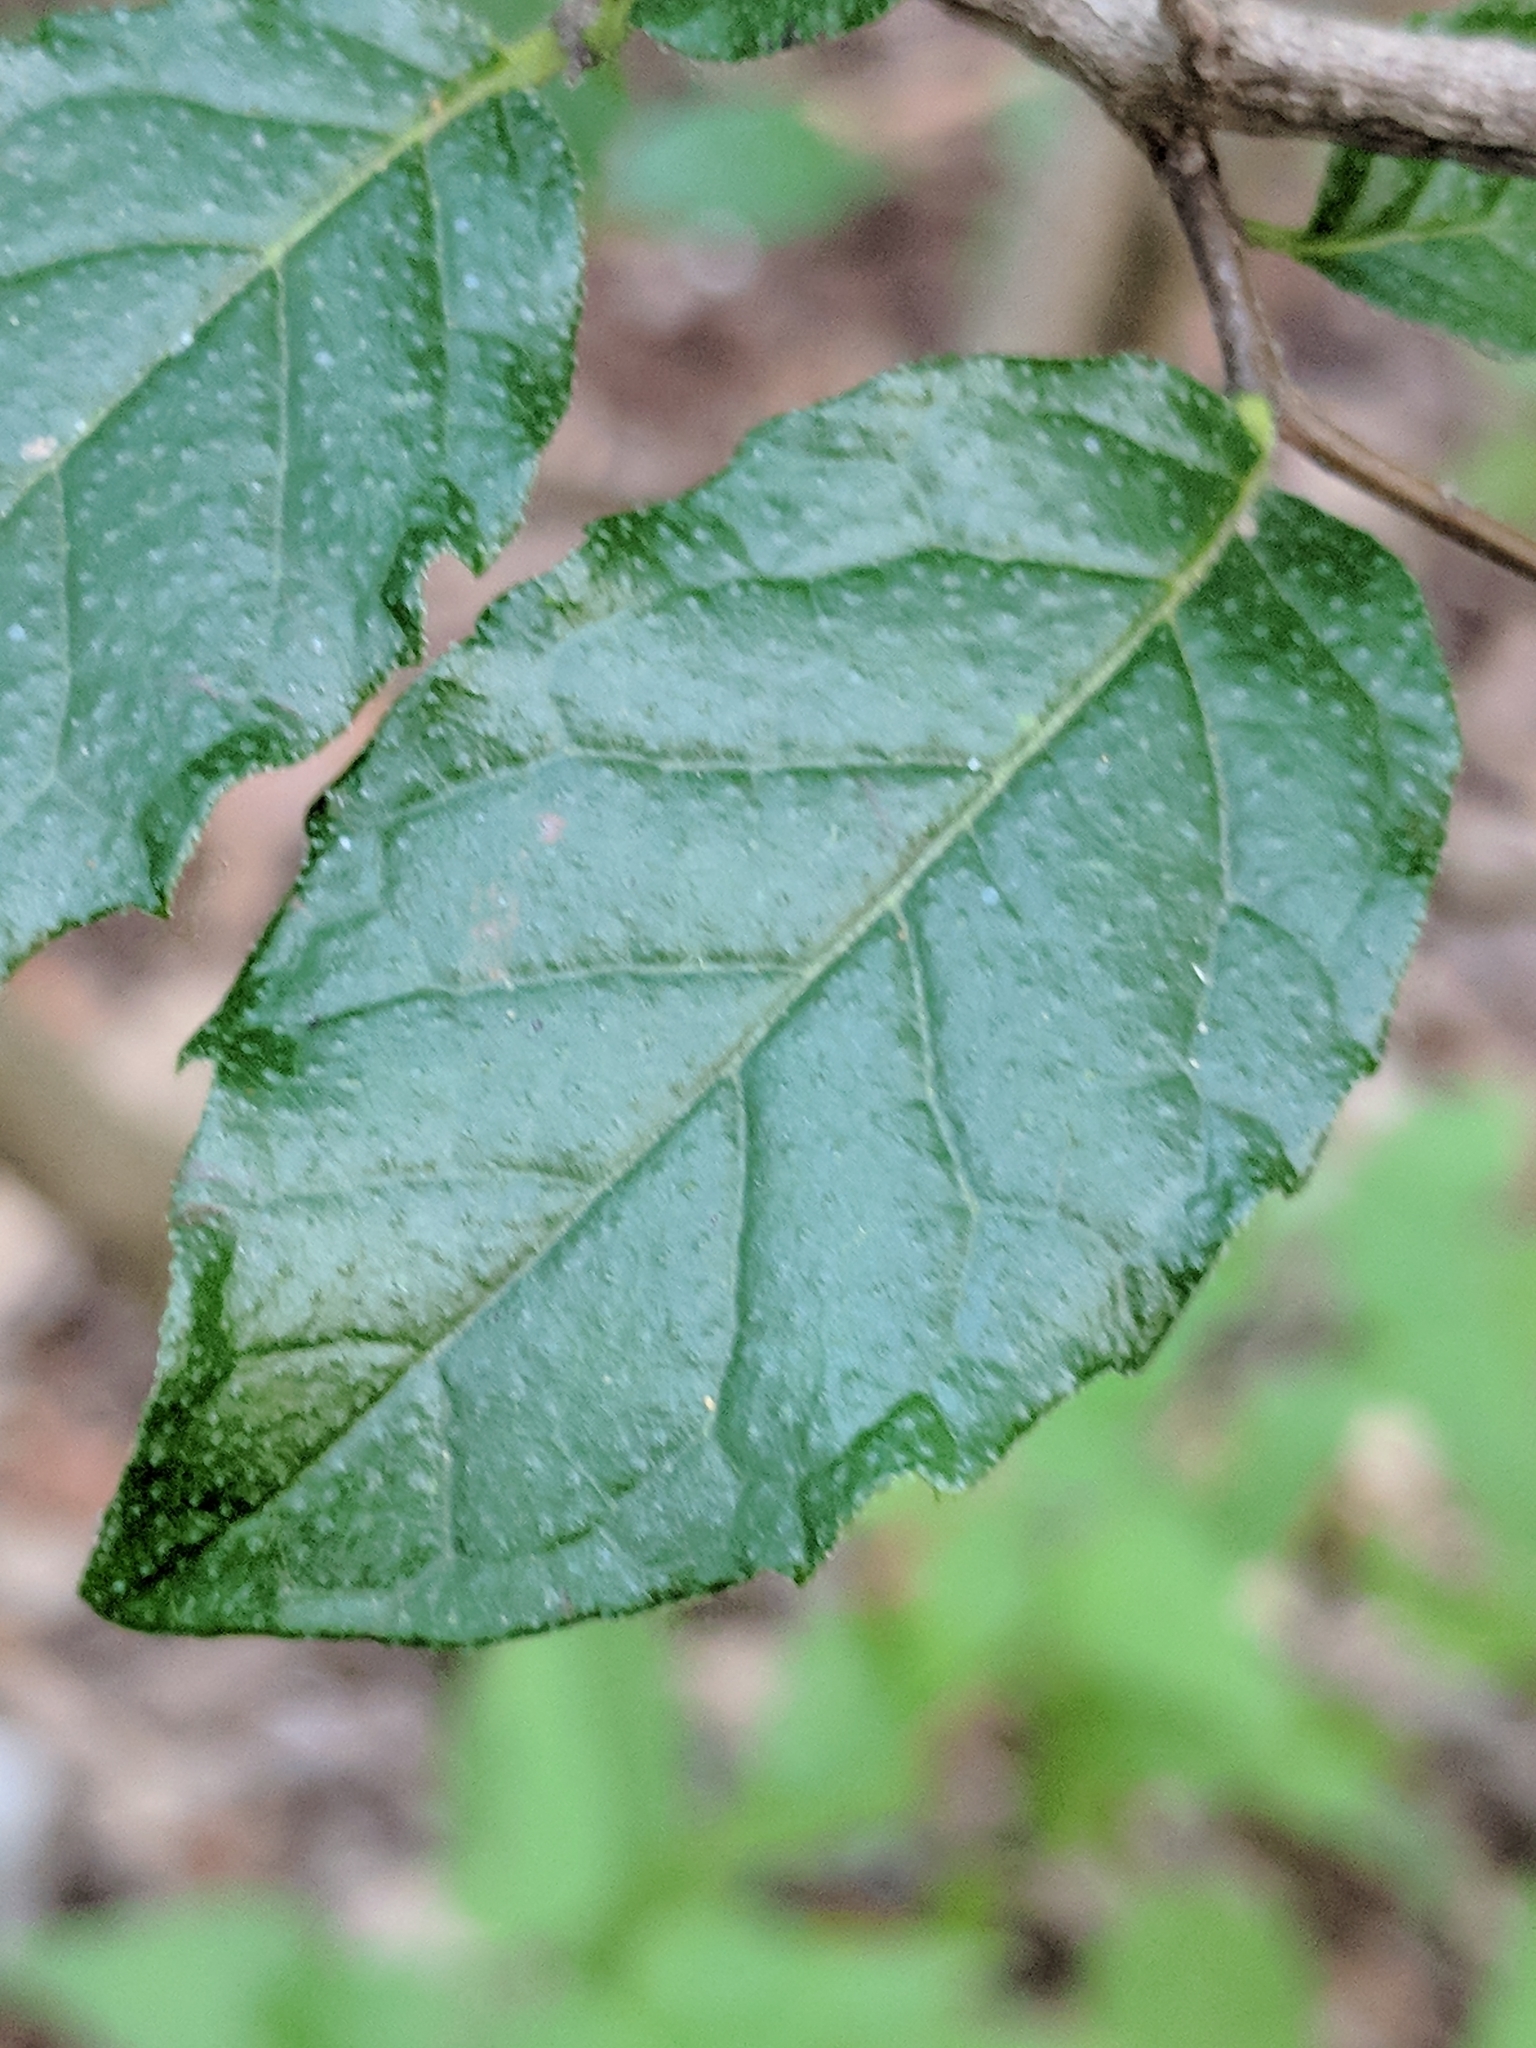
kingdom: Plantae
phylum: Tracheophyta
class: Magnoliopsida
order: Boraginales
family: Ehretiaceae
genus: Ehretia
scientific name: Ehretia anacua
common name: Sugarberry
